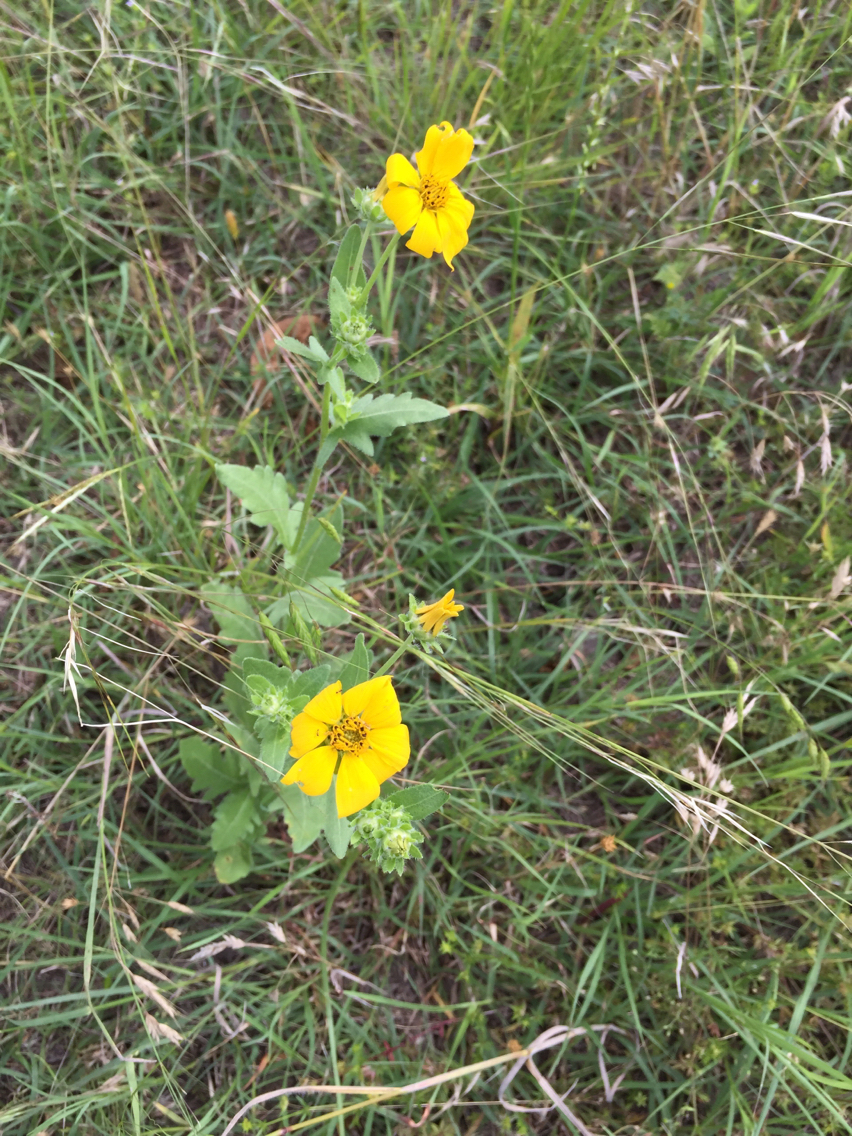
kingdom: Plantae
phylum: Tracheophyta
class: Magnoliopsida
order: Asterales
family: Asteraceae
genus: Engelmannia
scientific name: Engelmannia peristenia
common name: Engelmann's daisy
